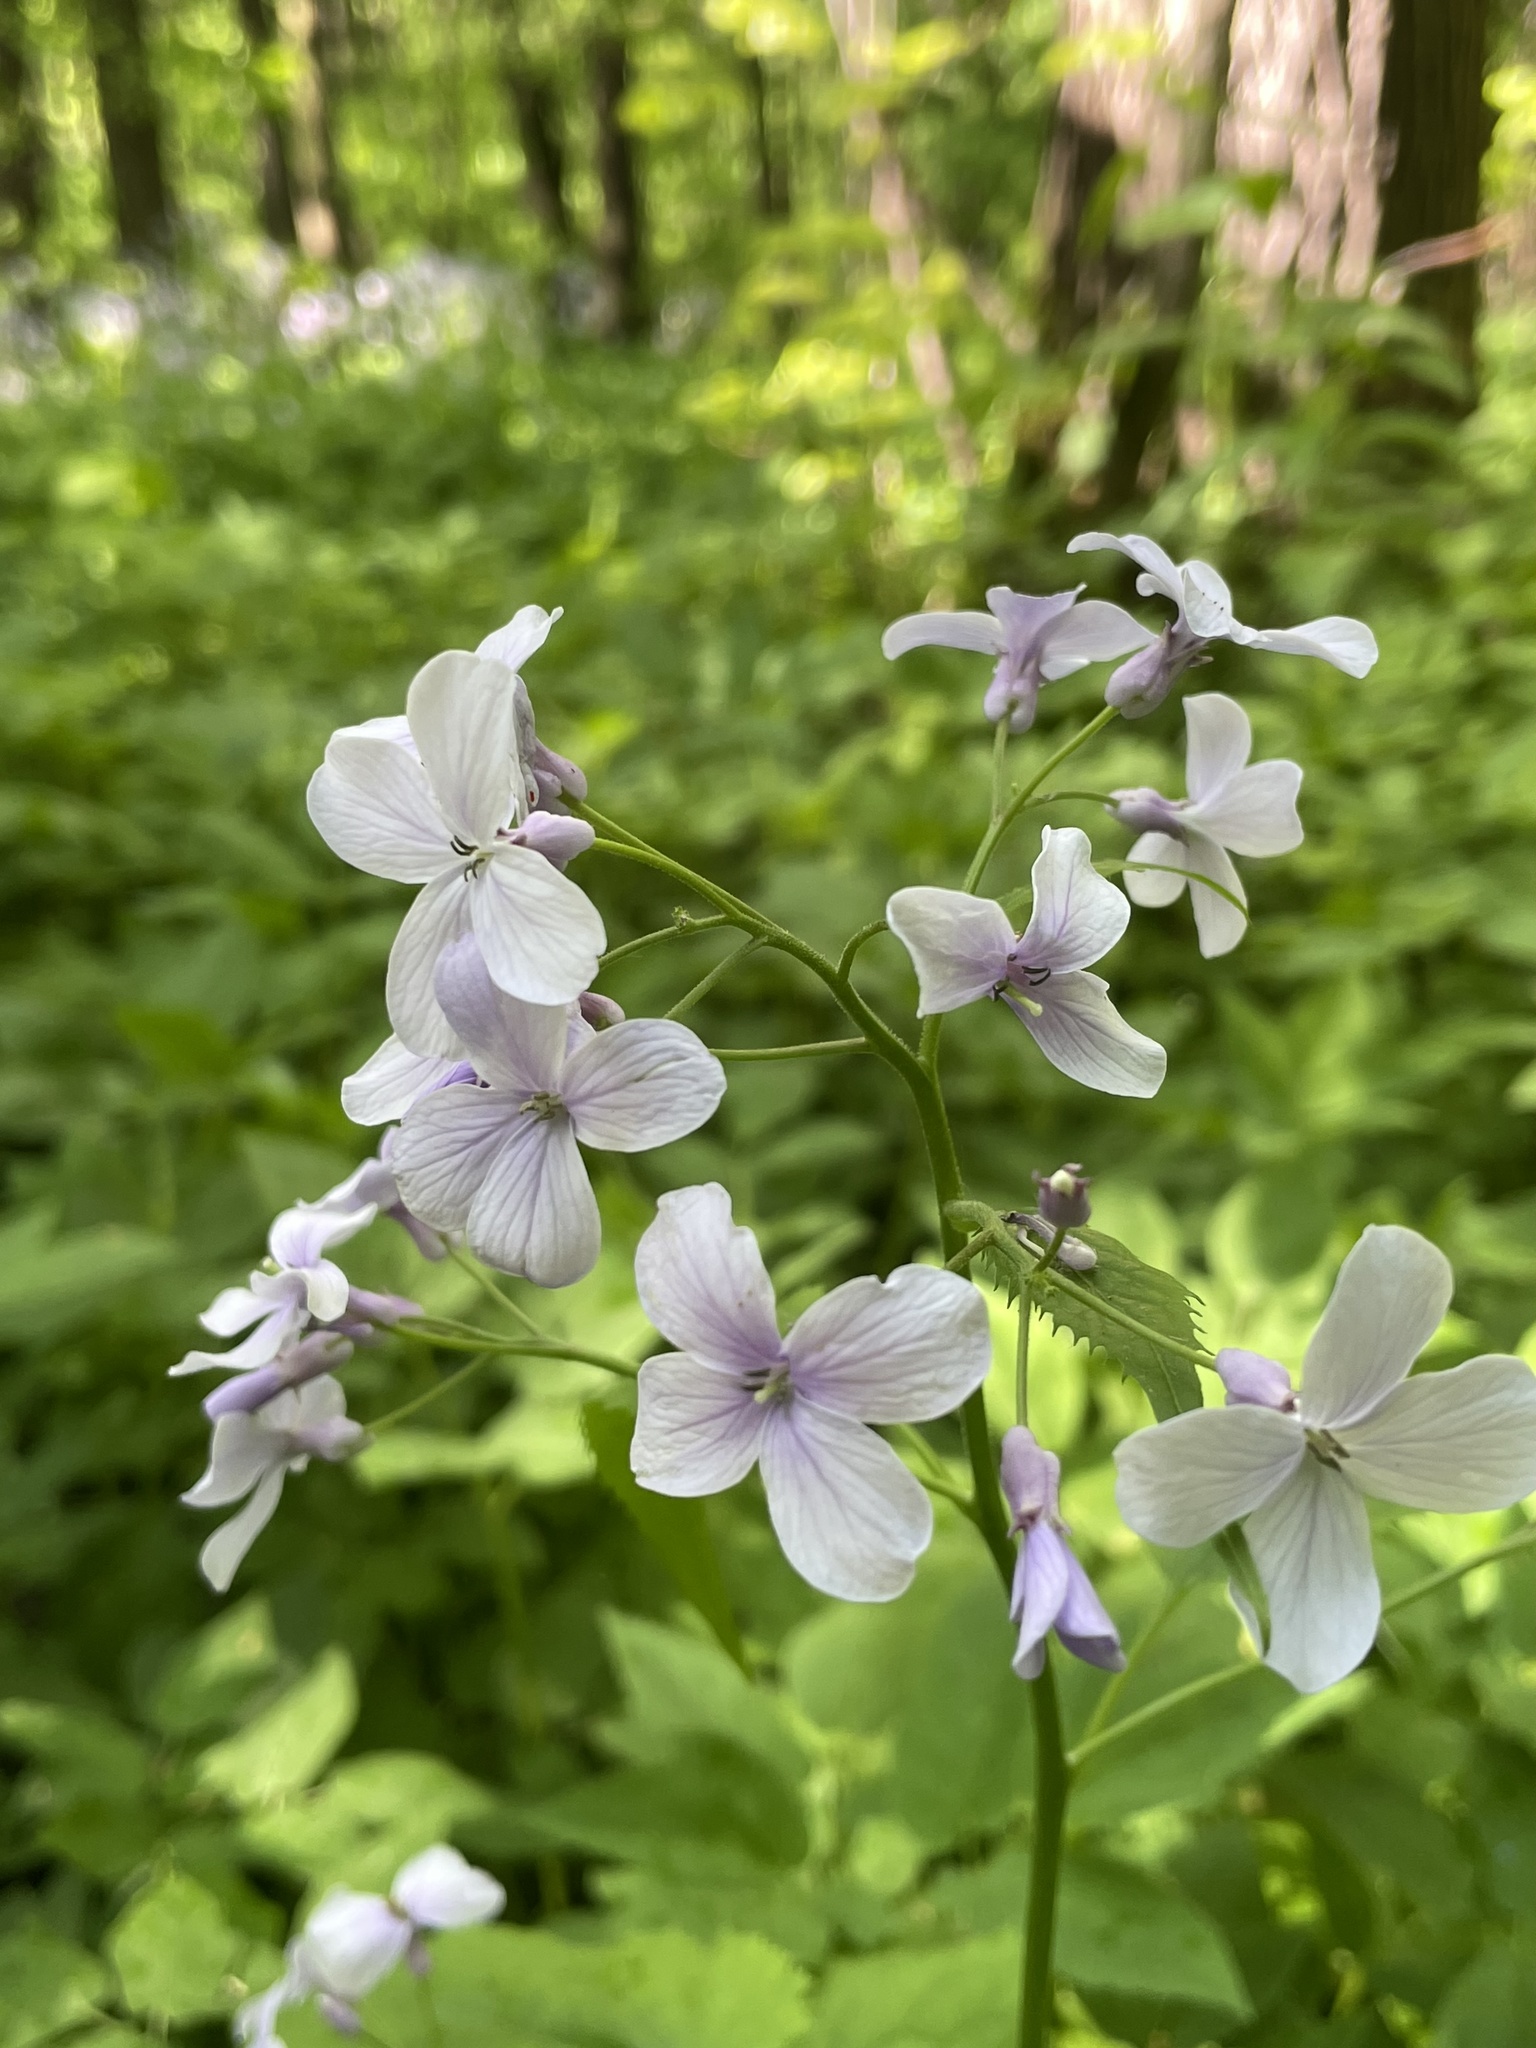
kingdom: Plantae
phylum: Tracheophyta
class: Magnoliopsida
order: Brassicales
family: Brassicaceae
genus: Lunaria
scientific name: Lunaria rediviva
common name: Perennial honesty
